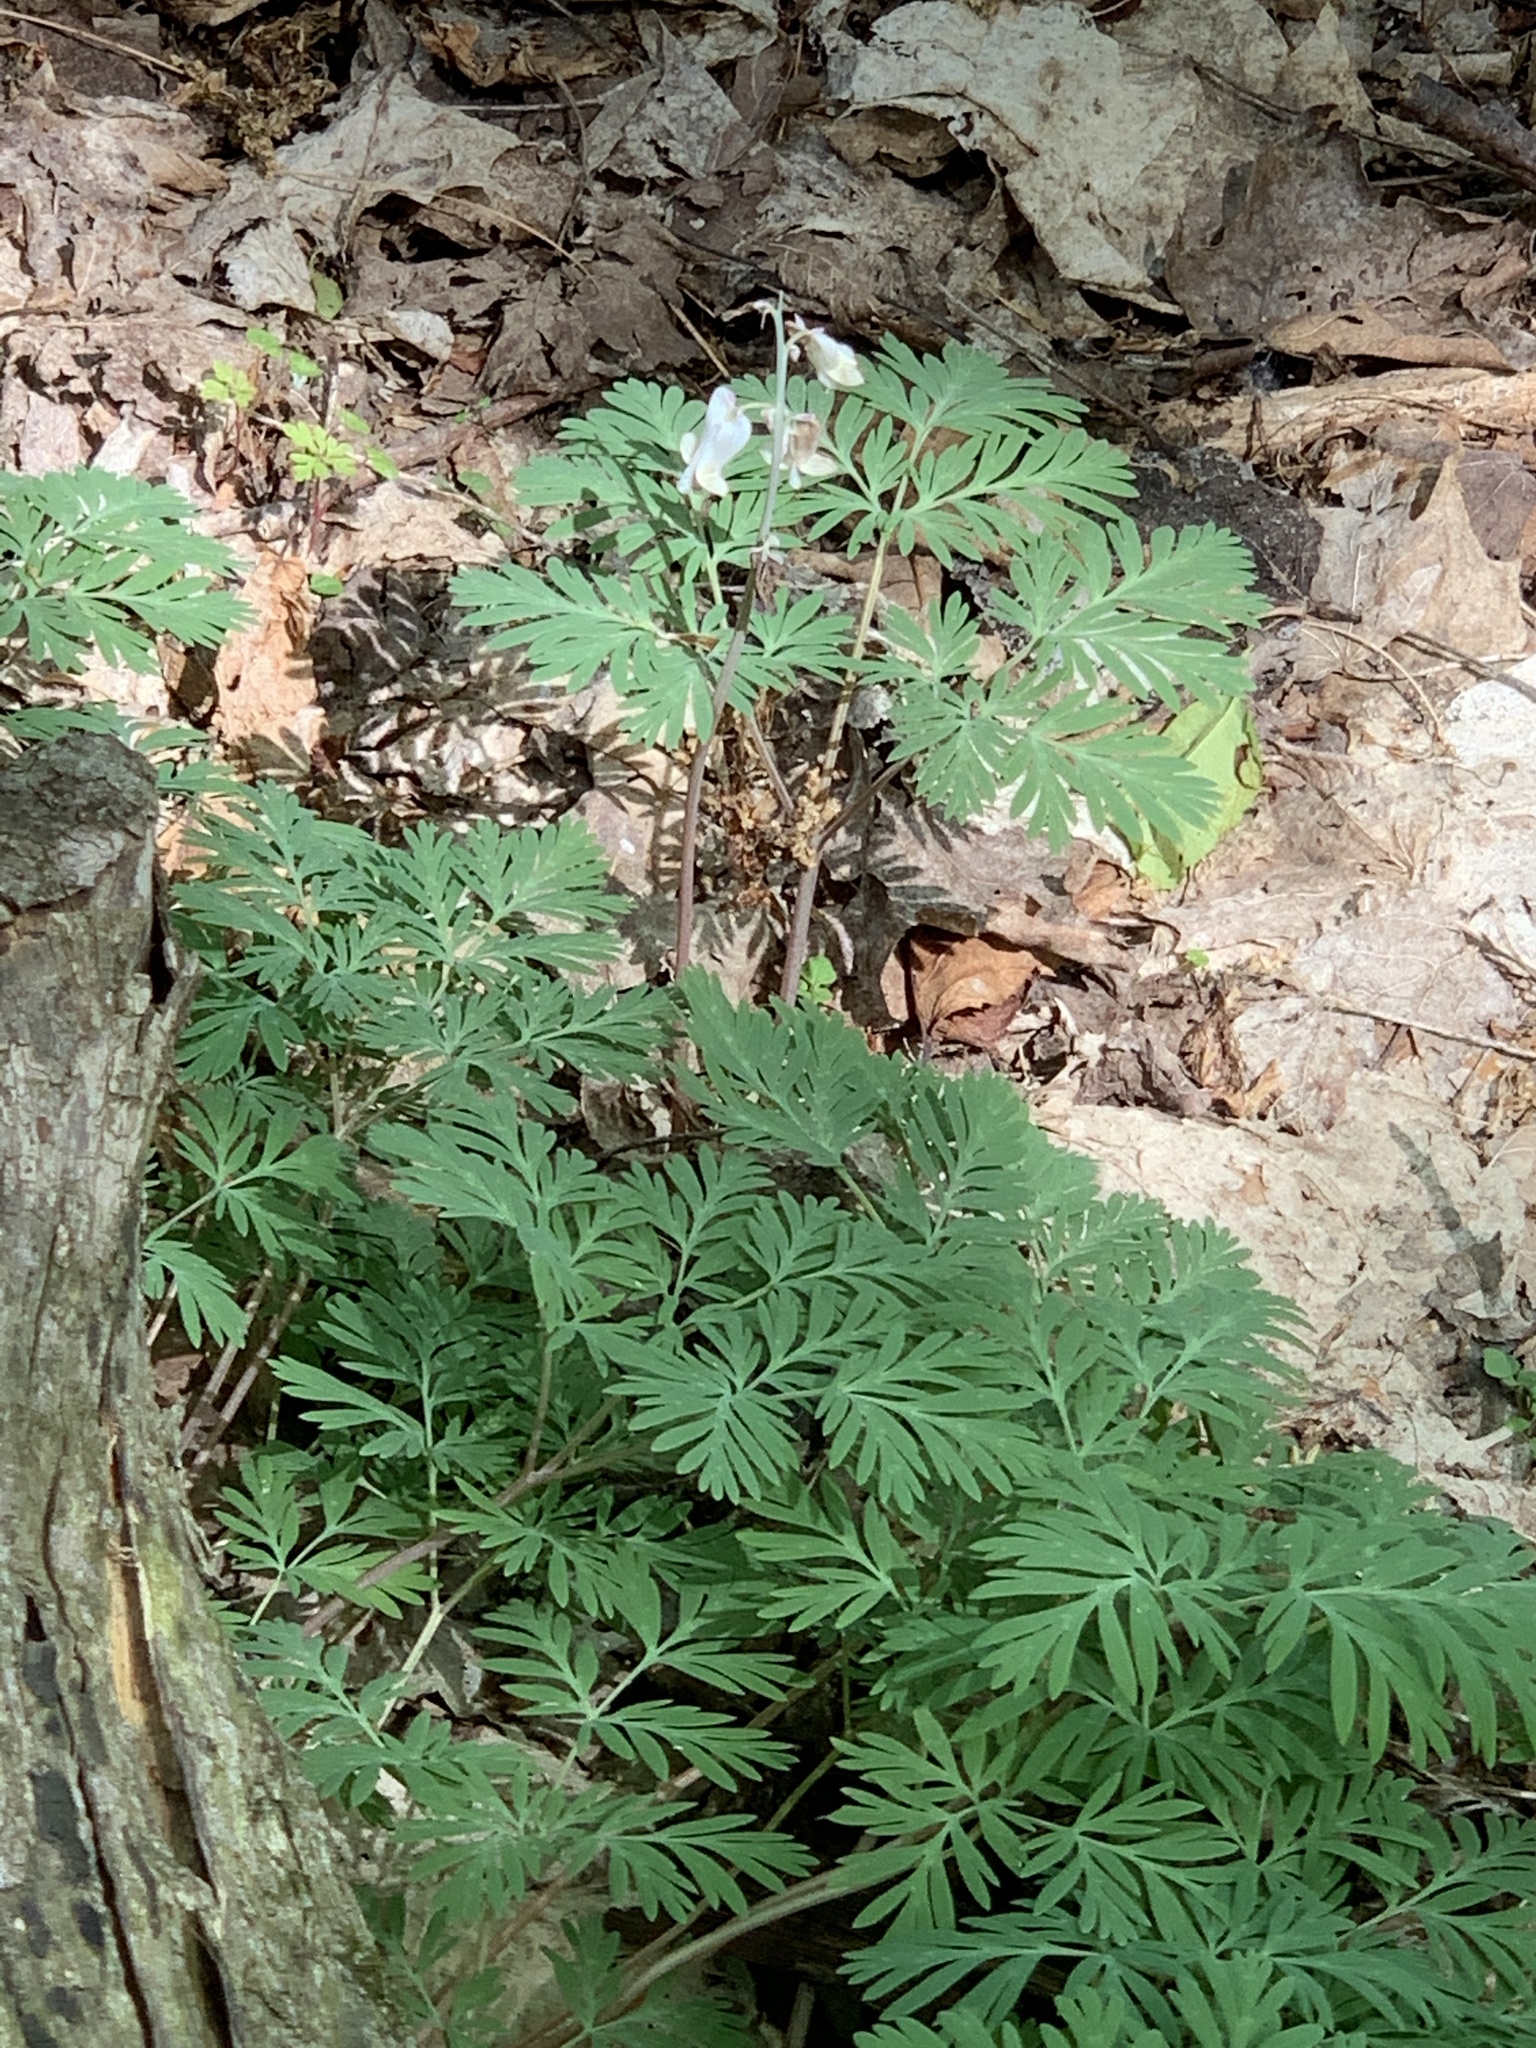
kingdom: Plantae
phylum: Tracheophyta
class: Magnoliopsida
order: Ranunculales
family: Papaveraceae
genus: Dicentra
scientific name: Dicentra canadensis
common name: Squirrel-corn
